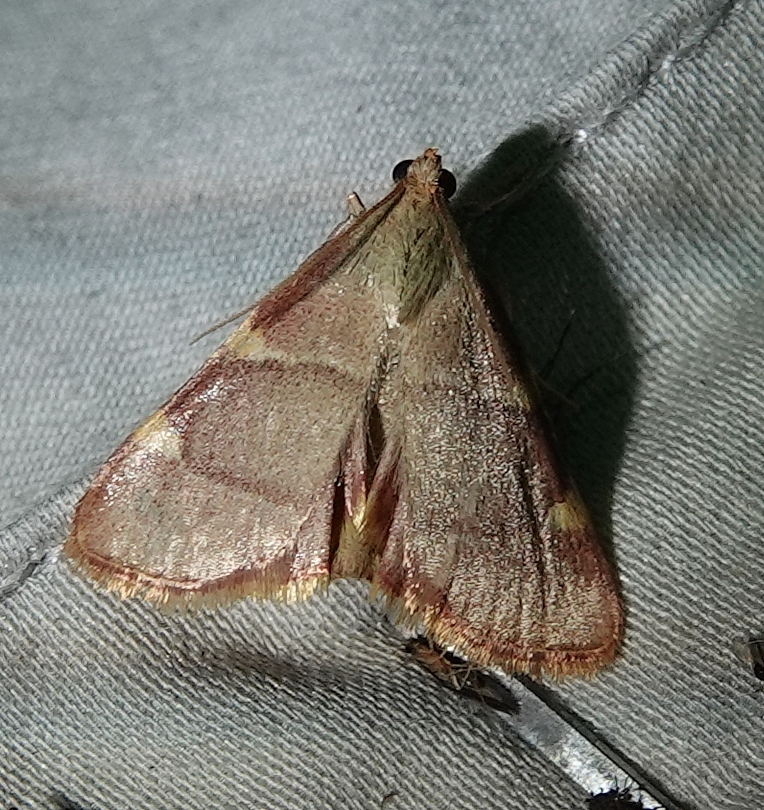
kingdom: Animalia
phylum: Arthropoda
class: Insecta
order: Lepidoptera
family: Pyralidae
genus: Hypsopygia
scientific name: Hypsopygia olinalis
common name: Yellow-fringed dolichomia moth
